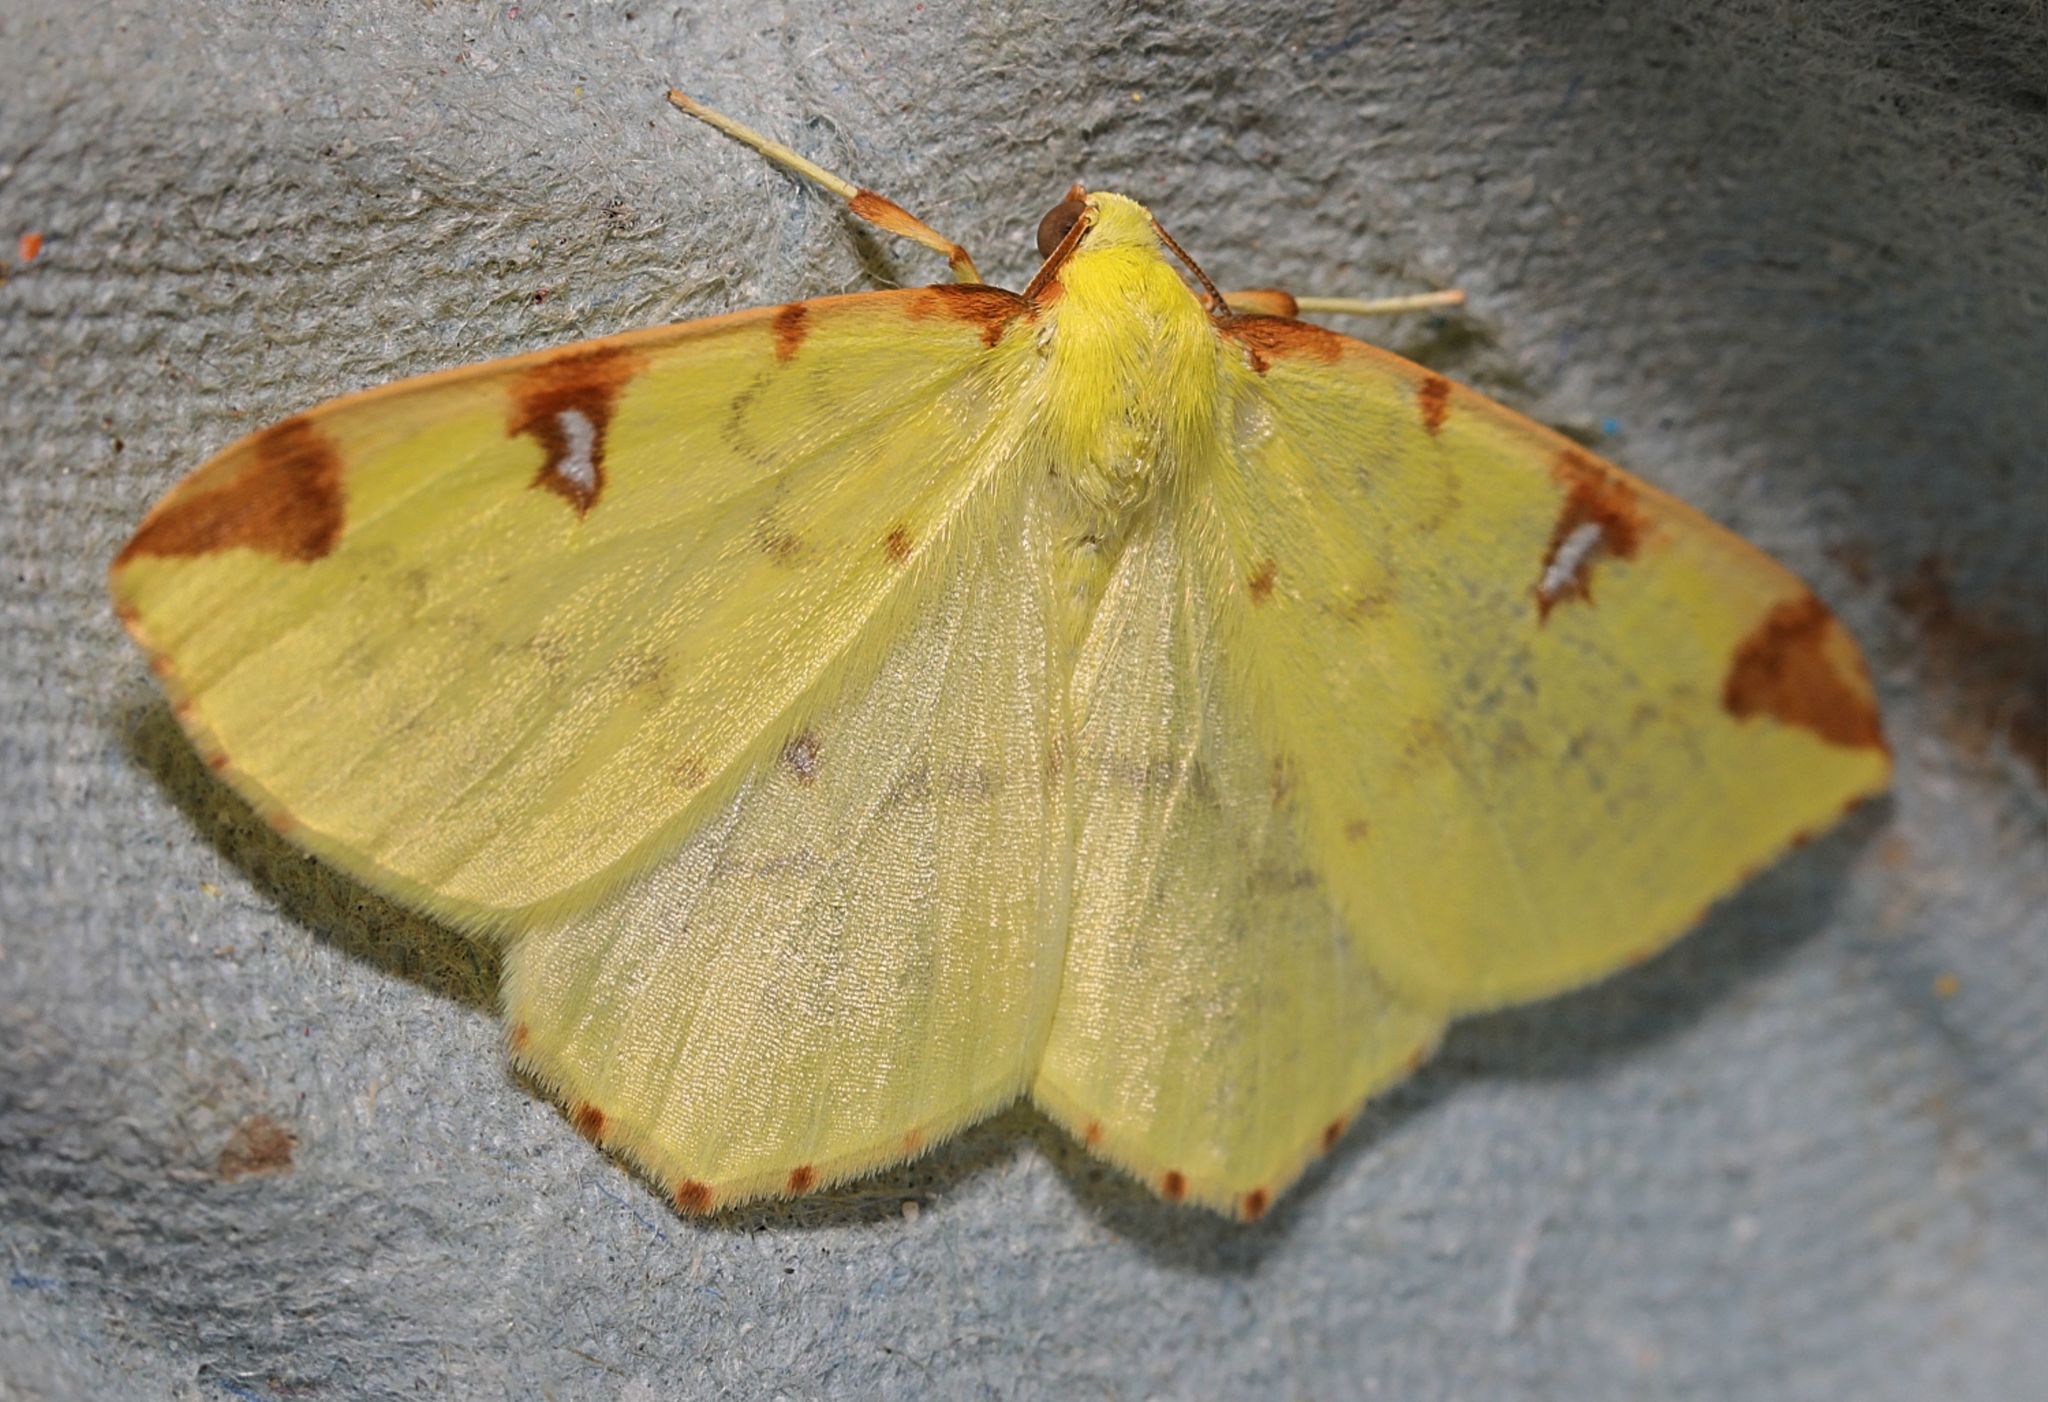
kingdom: Animalia
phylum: Arthropoda
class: Insecta
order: Lepidoptera
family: Geometridae
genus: Opisthograptis
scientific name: Opisthograptis luteolata
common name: Brimstone moth
